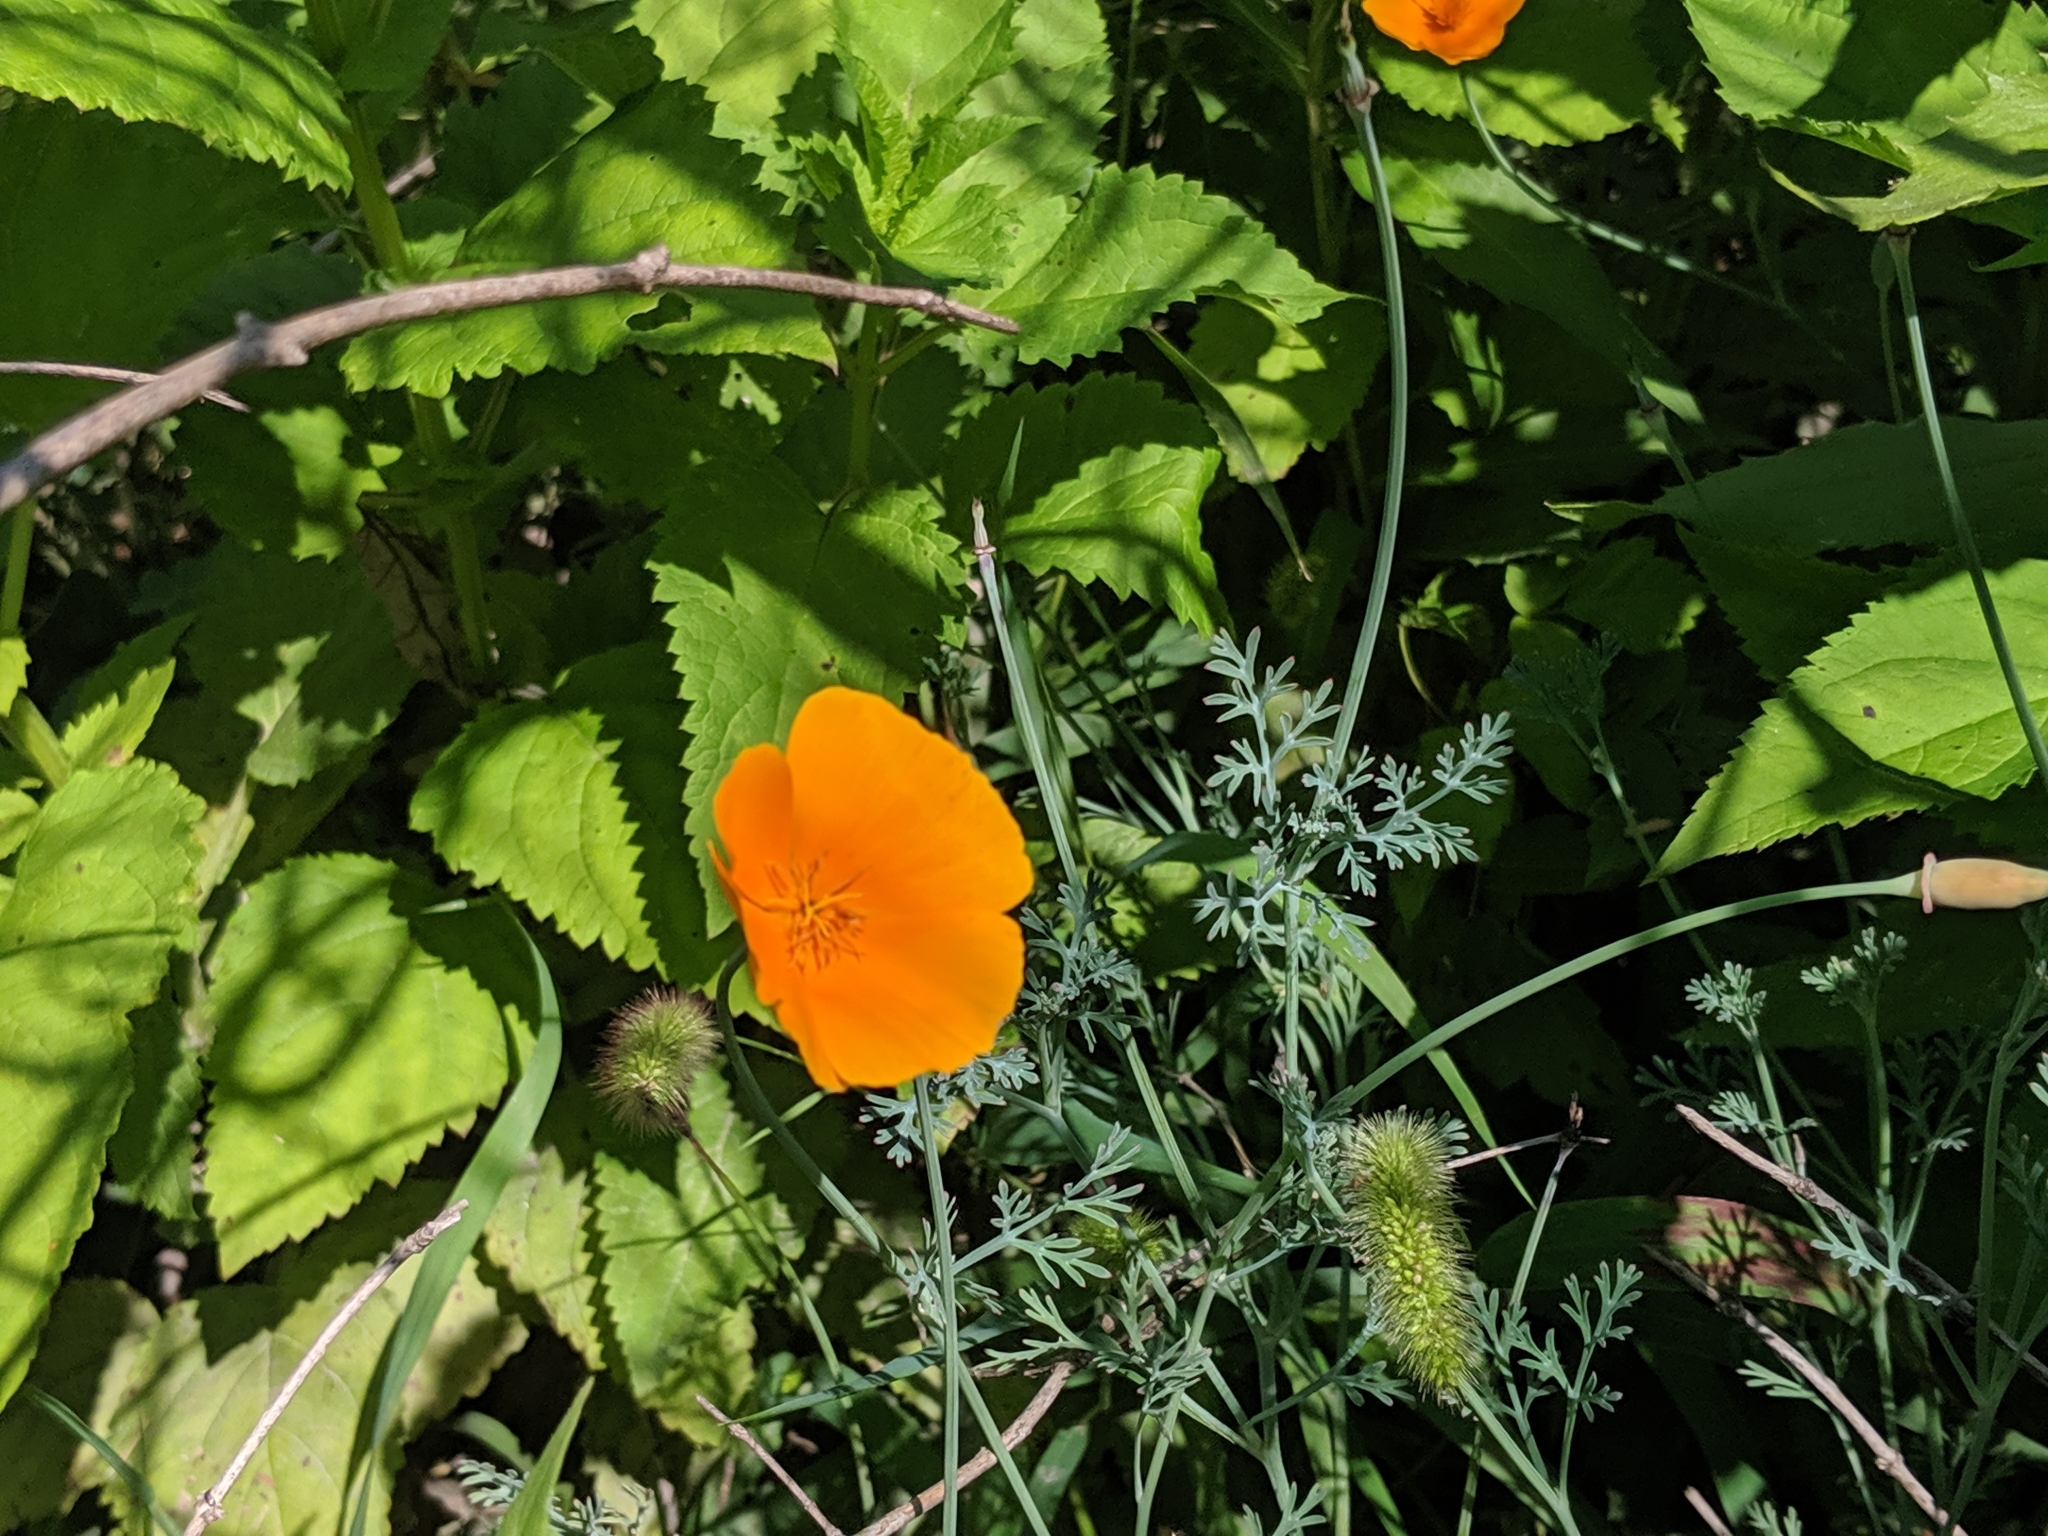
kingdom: Plantae
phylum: Tracheophyta
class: Magnoliopsida
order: Ranunculales
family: Papaveraceae
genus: Eschscholzia
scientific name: Eschscholzia californica
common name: California poppy
